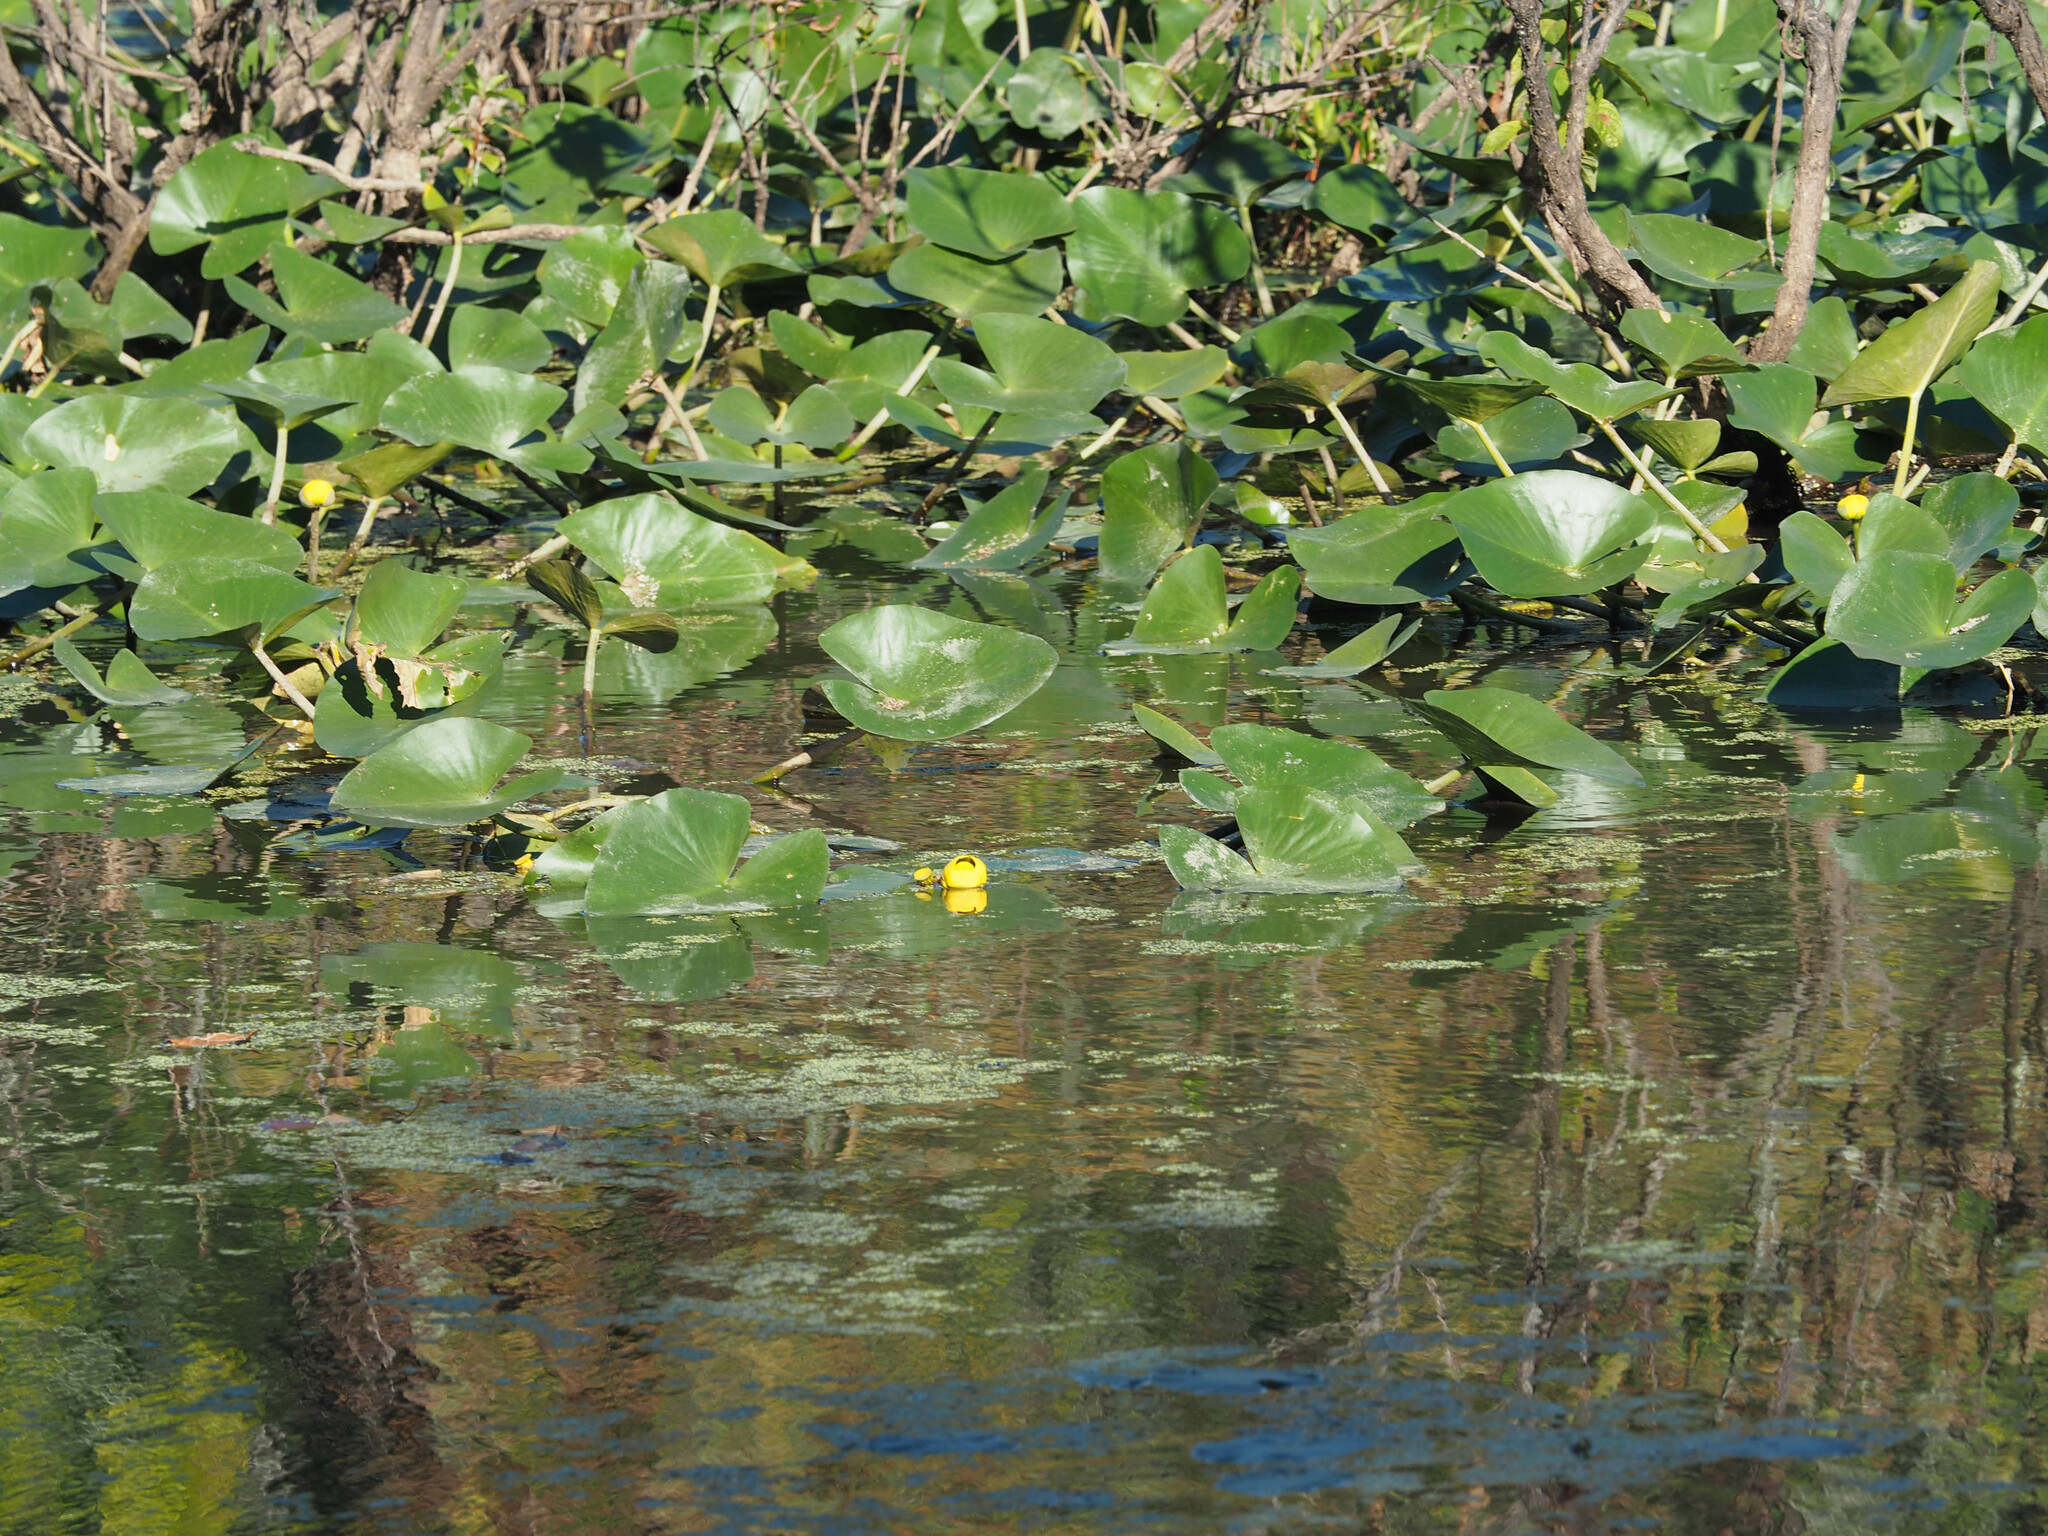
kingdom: Plantae
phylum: Tracheophyta
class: Magnoliopsida
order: Nymphaeales
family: Nymphaeaceae
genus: Nuphar
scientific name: Nuphar advena
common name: Spatter-dock
